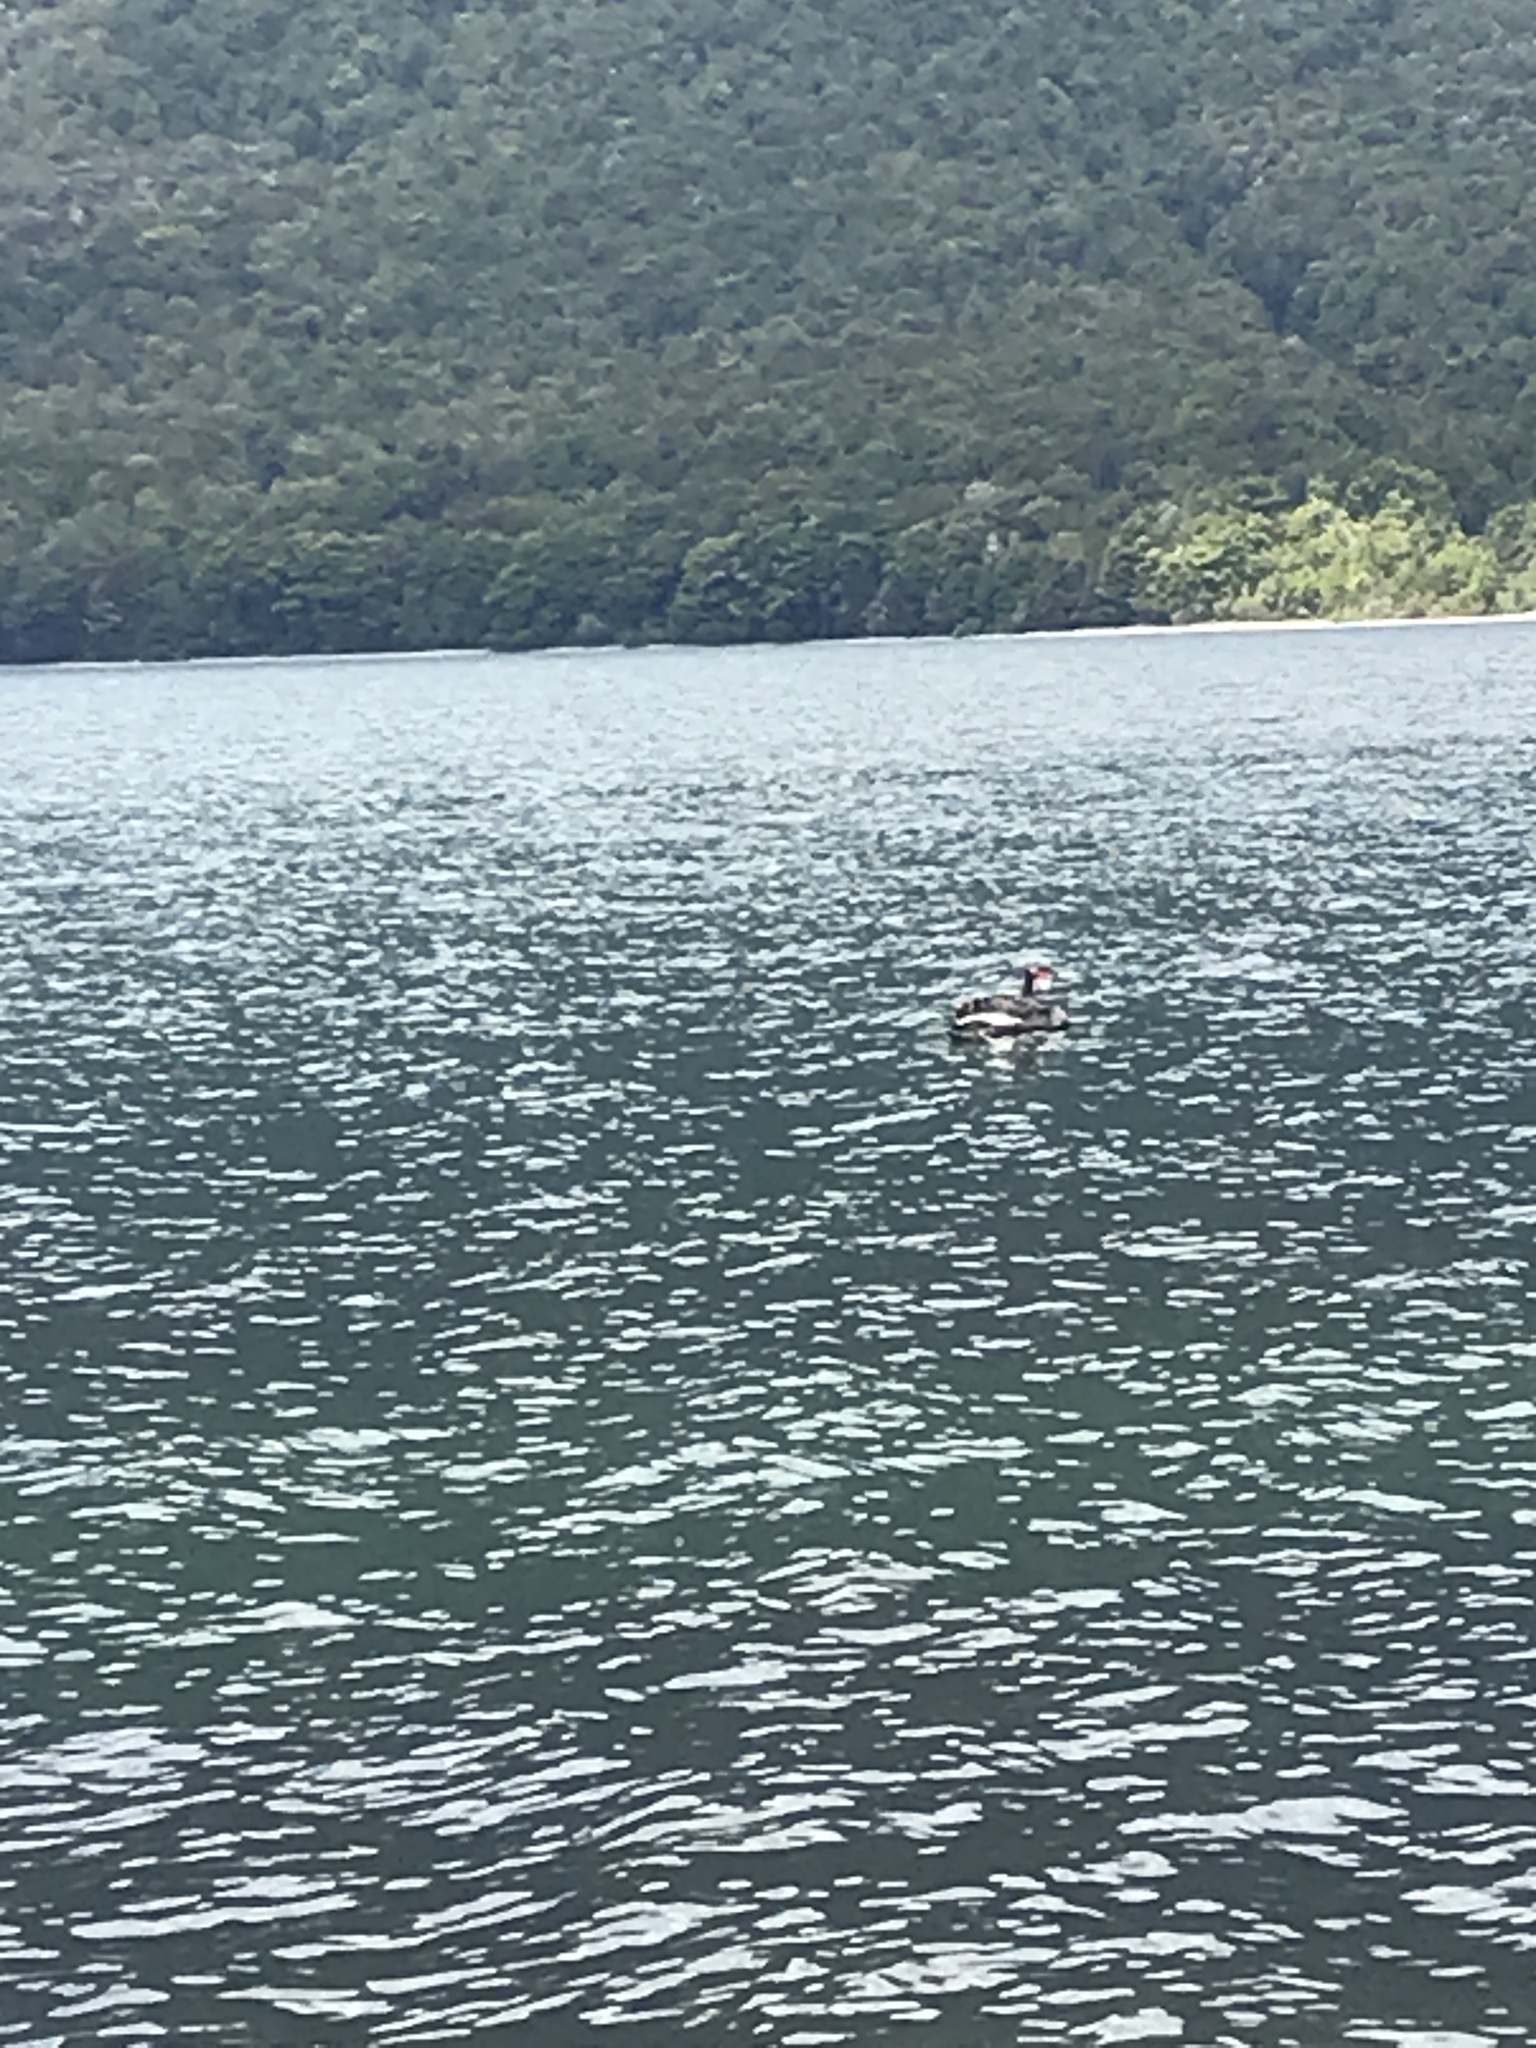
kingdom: Animalia
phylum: Chordata
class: Aves
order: Anseriformes
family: Anatidae
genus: Cygnus
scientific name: Cygnus atratus
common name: Black swan
